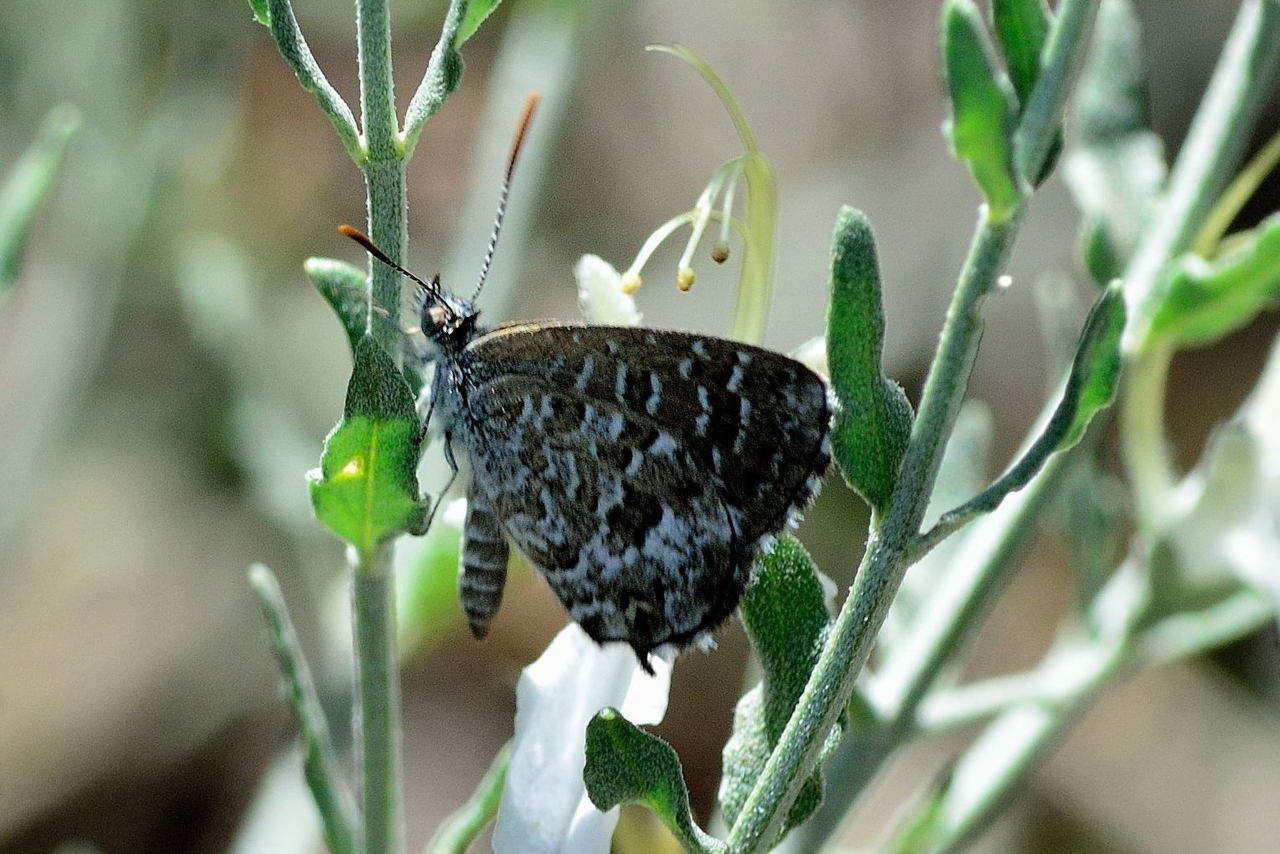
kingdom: Animalia
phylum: Arthropoda
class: Insecta
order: Lepidoptera
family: Lycaenidae
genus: Theclinesthes
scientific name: Theclinesthes serpentata
